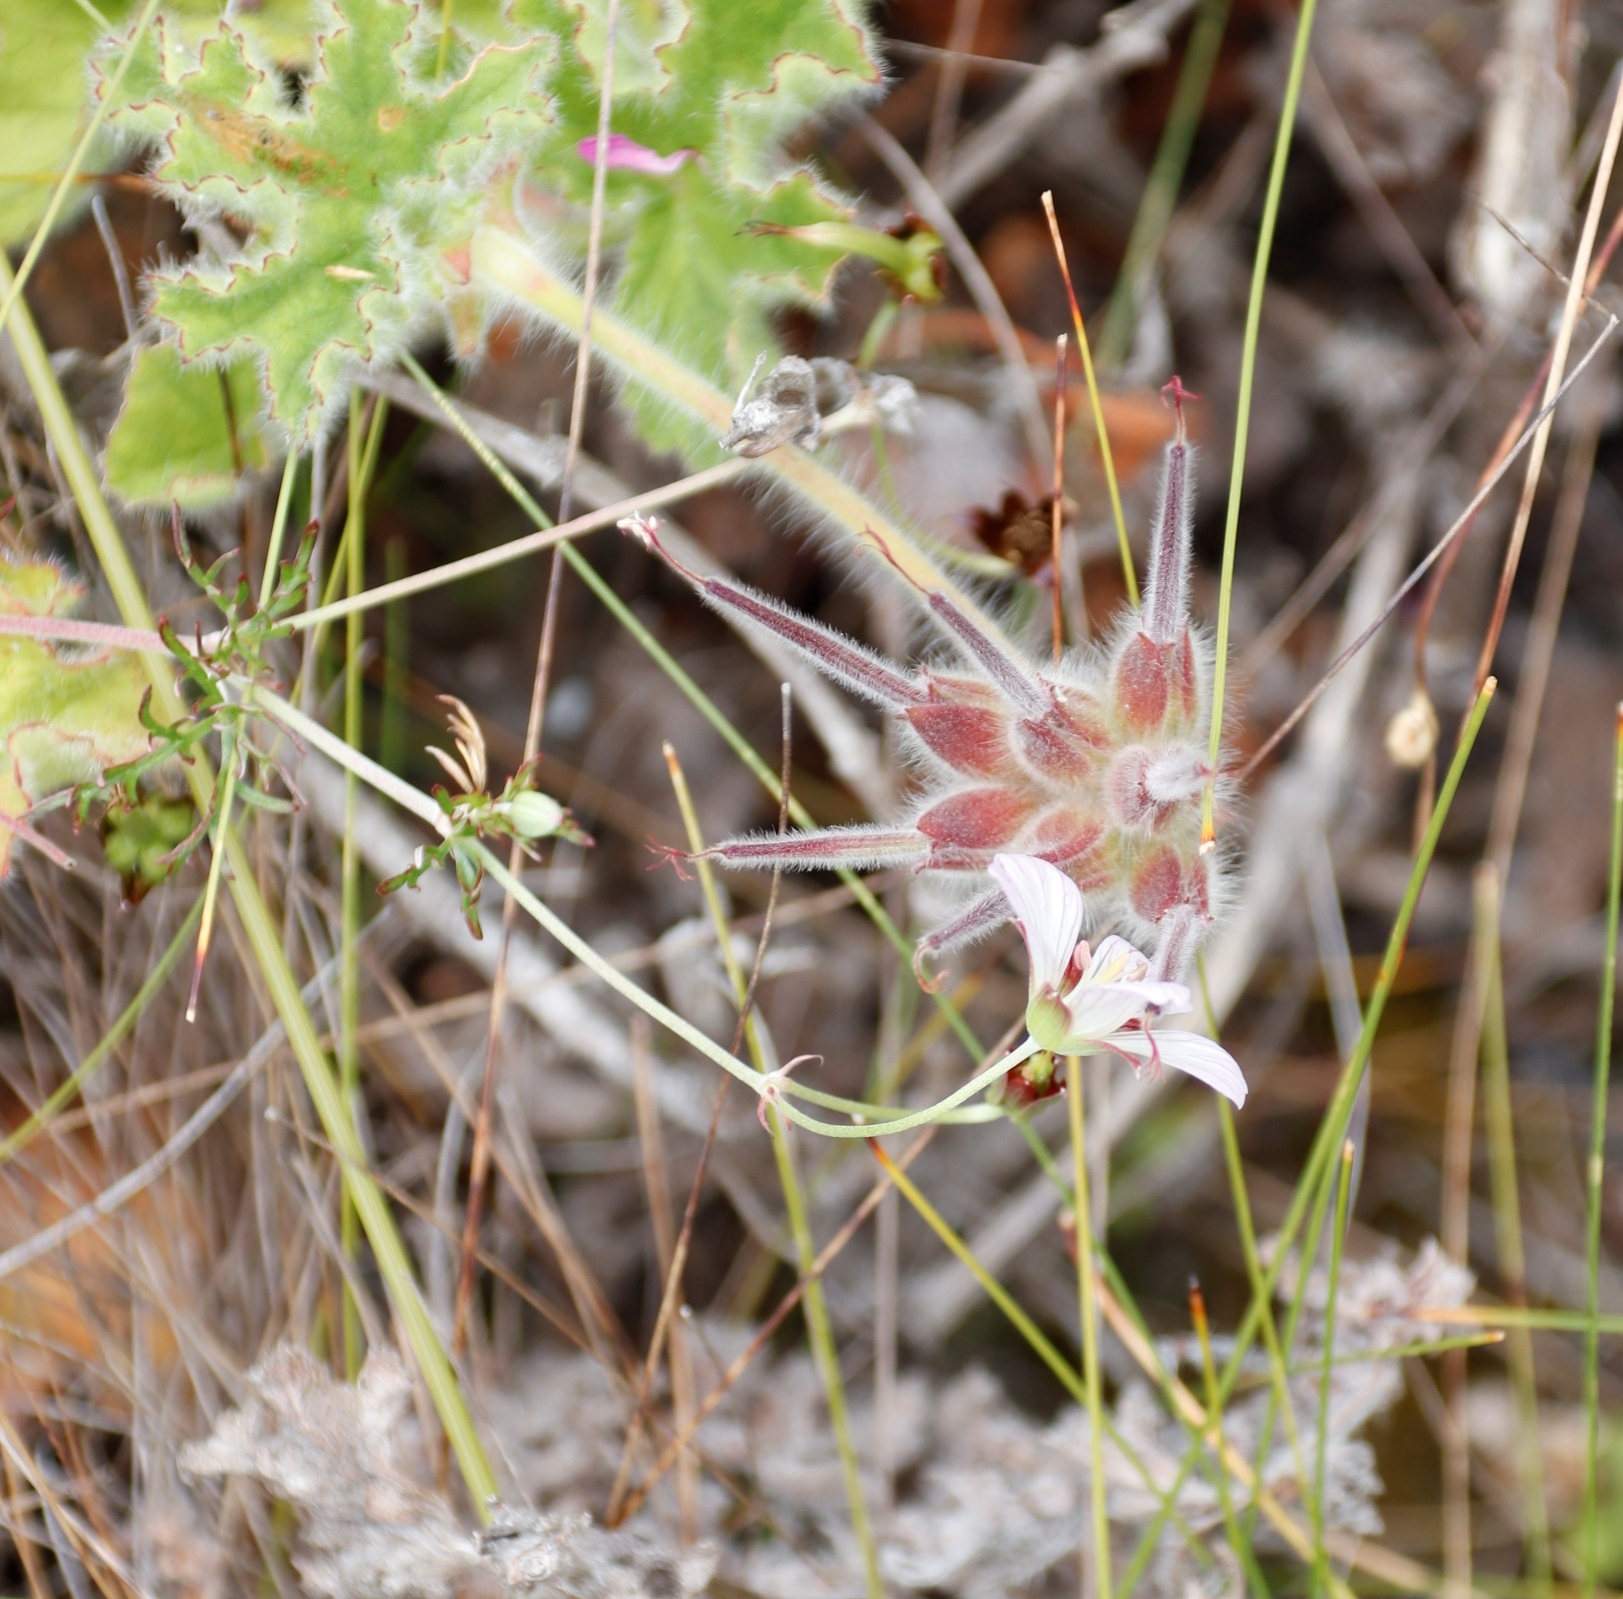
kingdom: Plantae
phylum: Tracheophyta
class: Magnoliopsida
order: Geraniales
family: Geraniaceae
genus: Pelargonium
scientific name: Pelargonium capitatum
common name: Rose scented geranium
